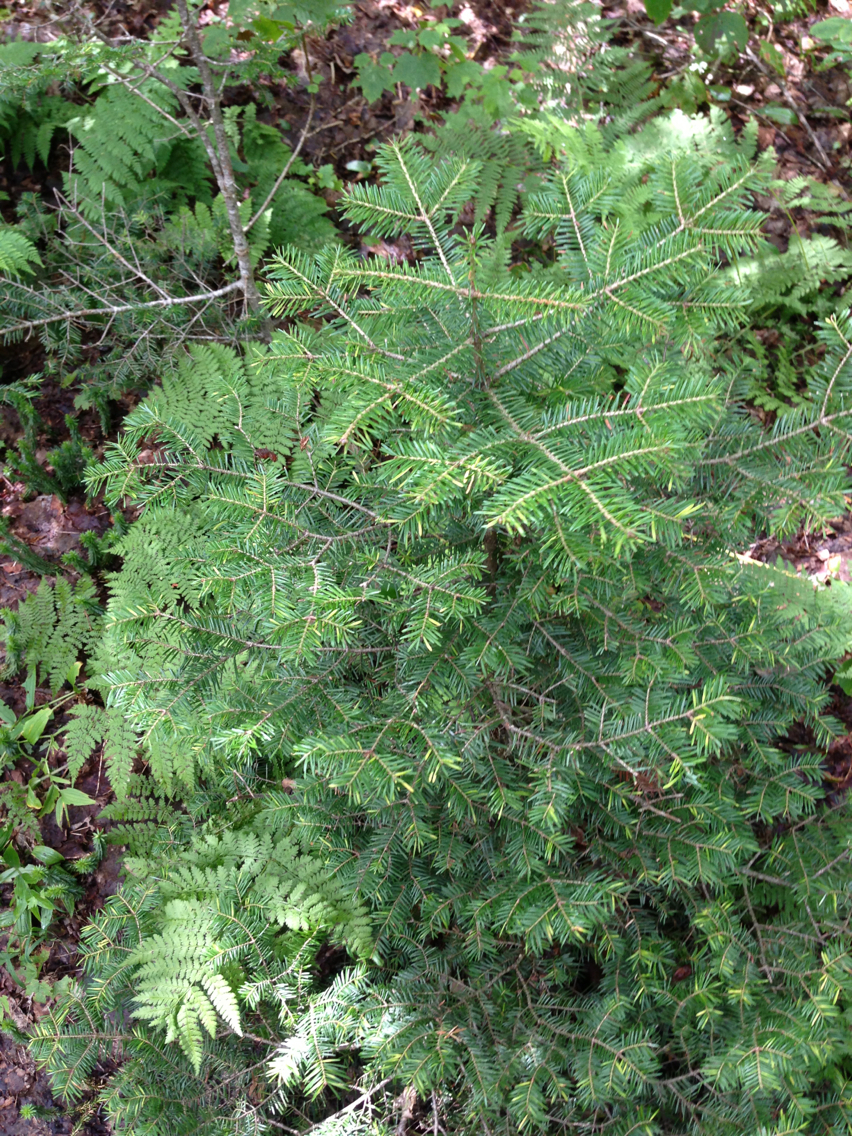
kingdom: Plantae
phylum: Tracheophyta
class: Pinopsida
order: Pinales
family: Pinaceae
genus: Abies
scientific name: Abies balsamea
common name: Balsam fir
